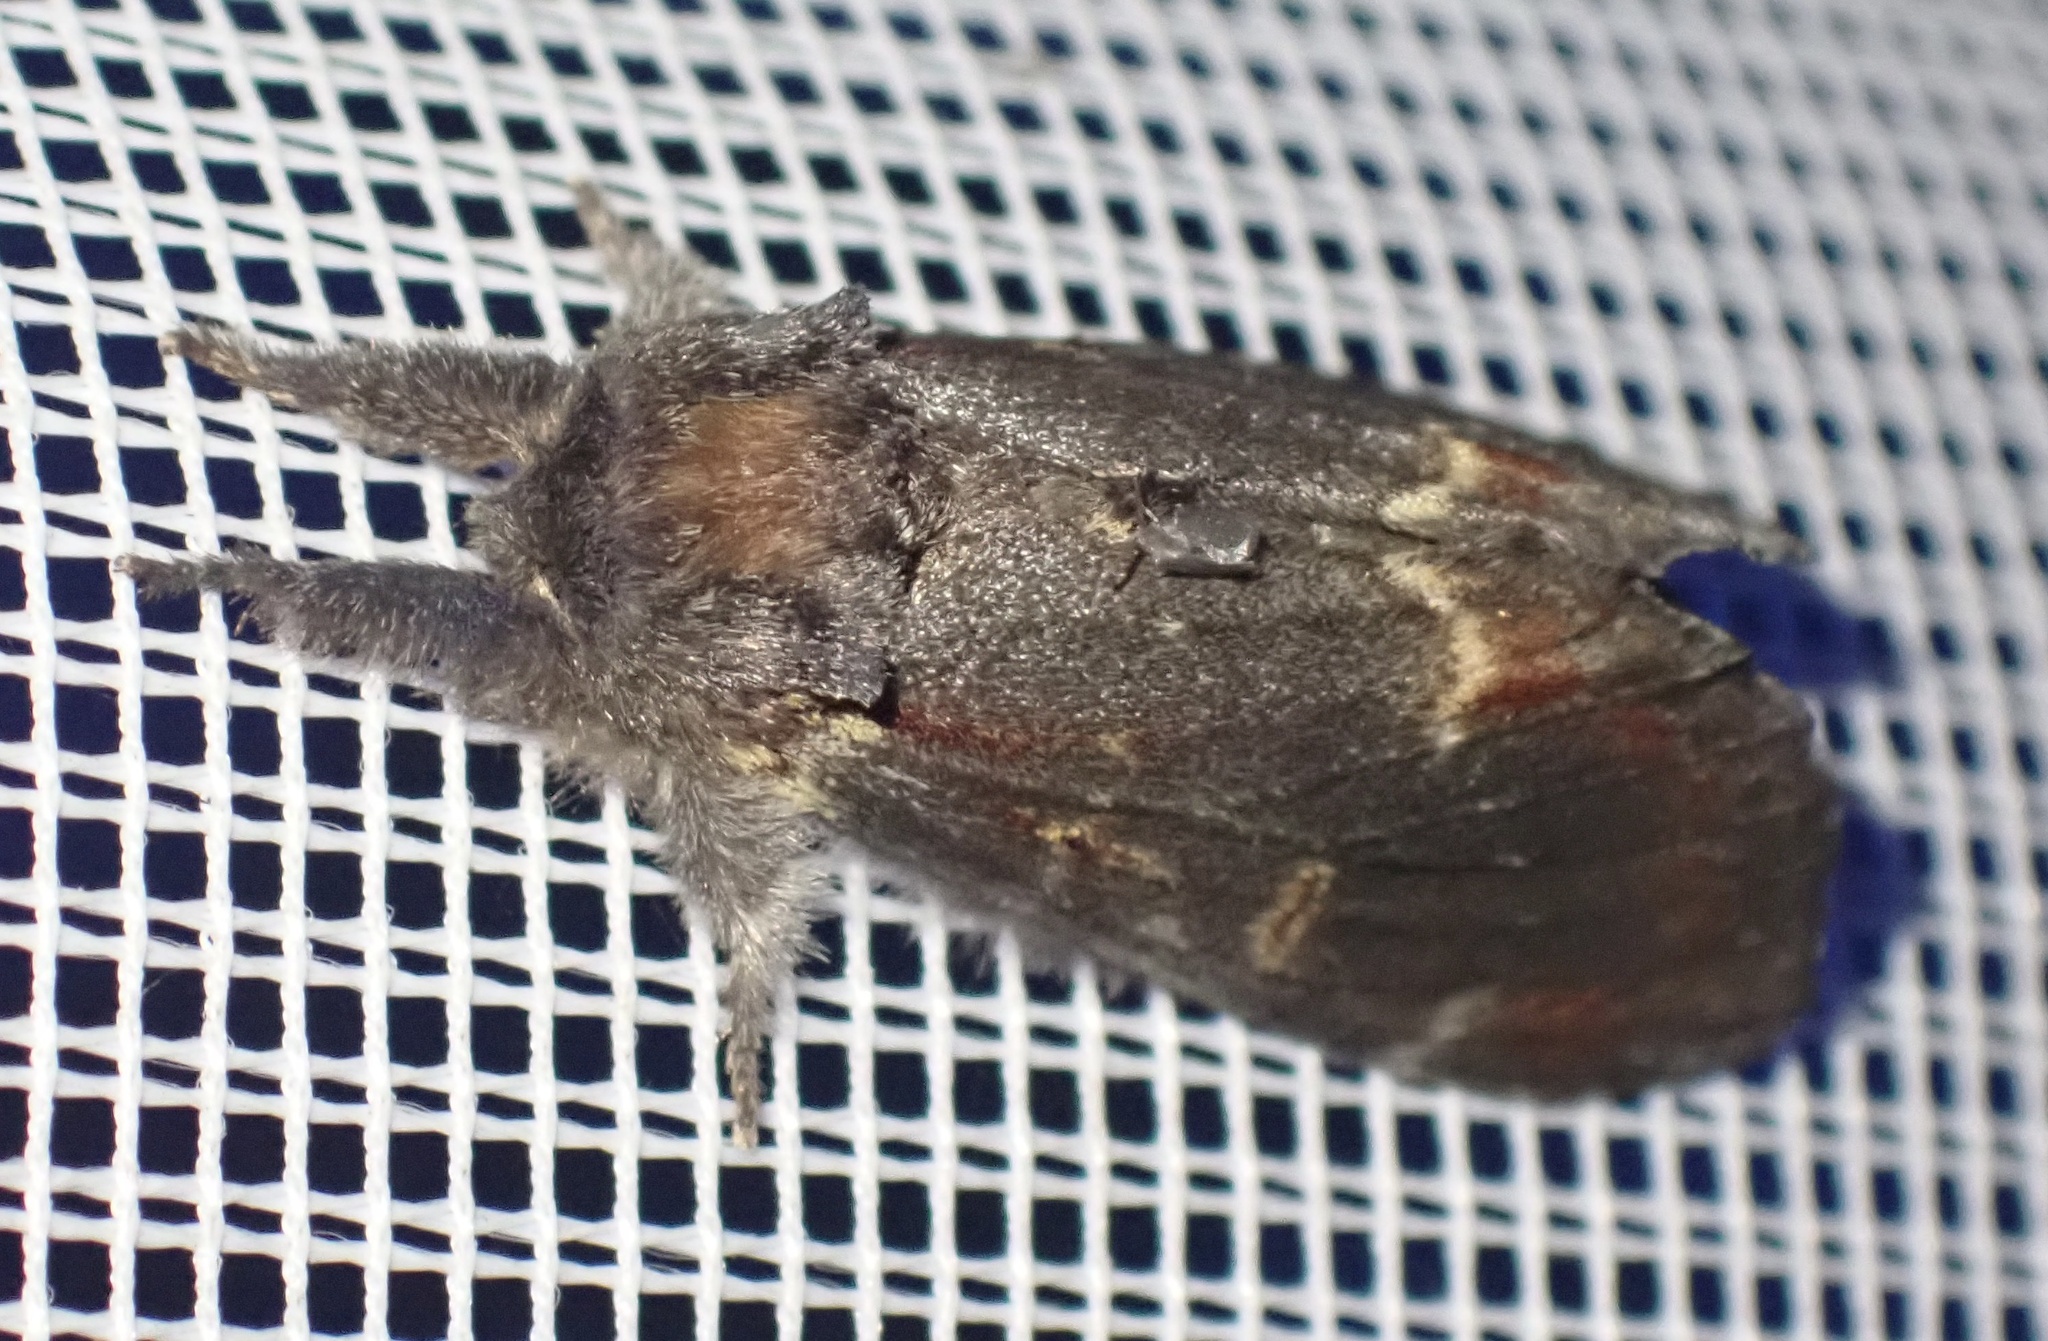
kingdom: Animalia
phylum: Arthropoda
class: Insecta
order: Lepidoptera
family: Notodontidae
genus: Notodonta
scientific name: Notodonta dromedarius
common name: Iron prominent
